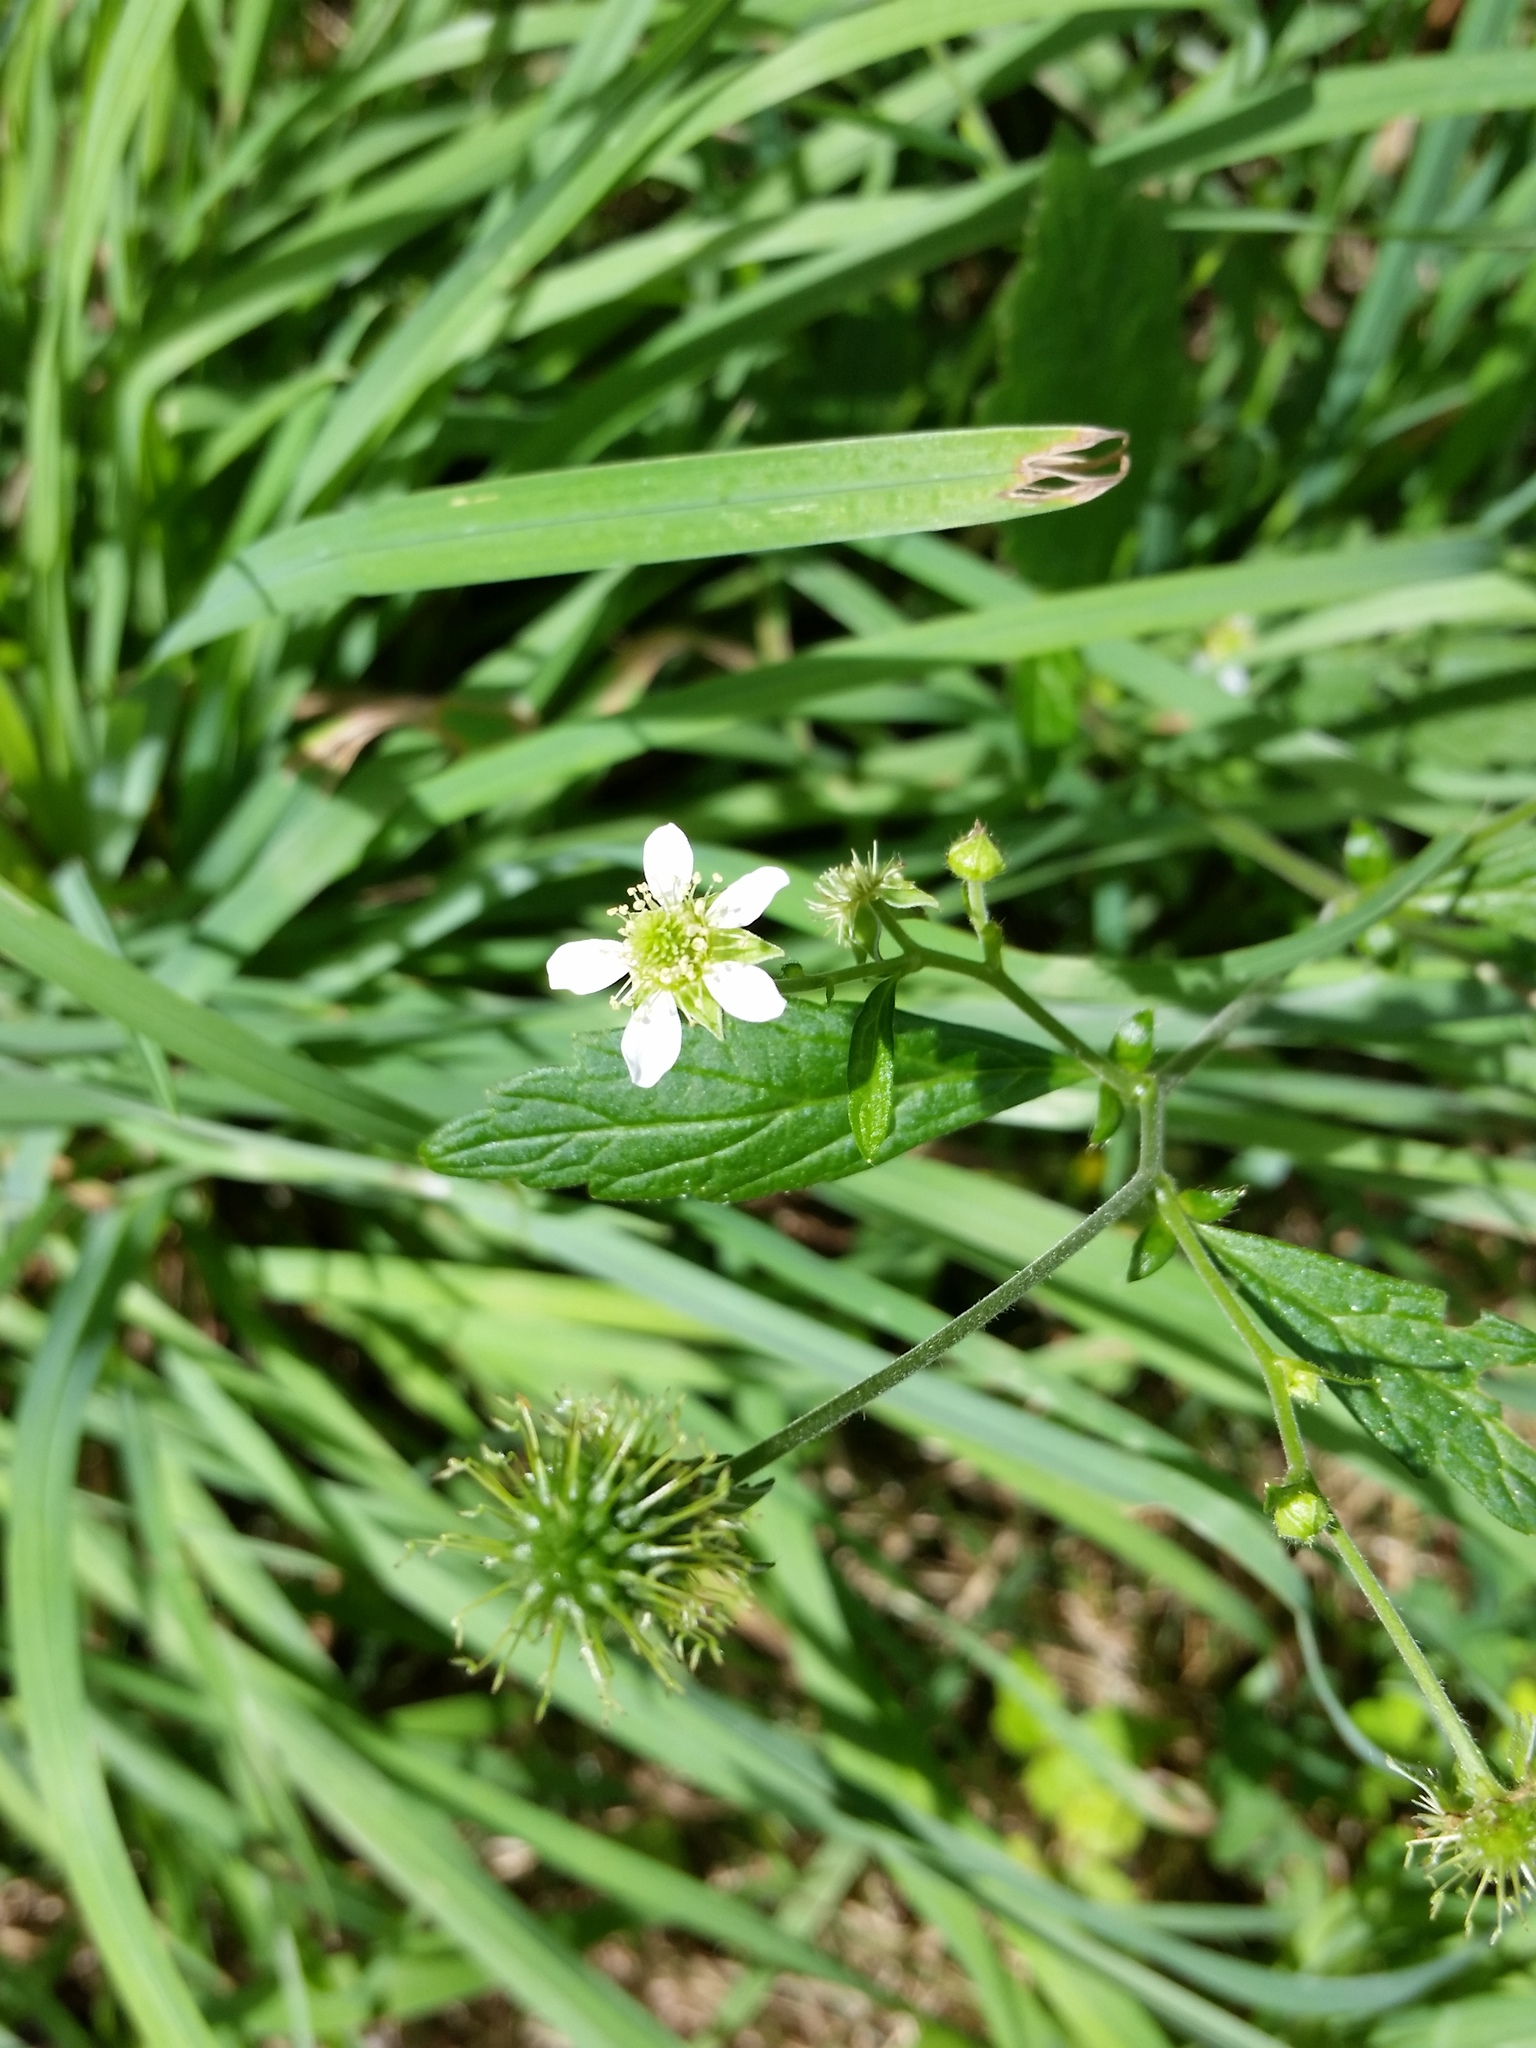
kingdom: Plantae
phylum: Tracheophyta
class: Magnoliopsida
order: Rosales
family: Rosaceae
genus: Geum
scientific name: Geum canadense
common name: White avens
